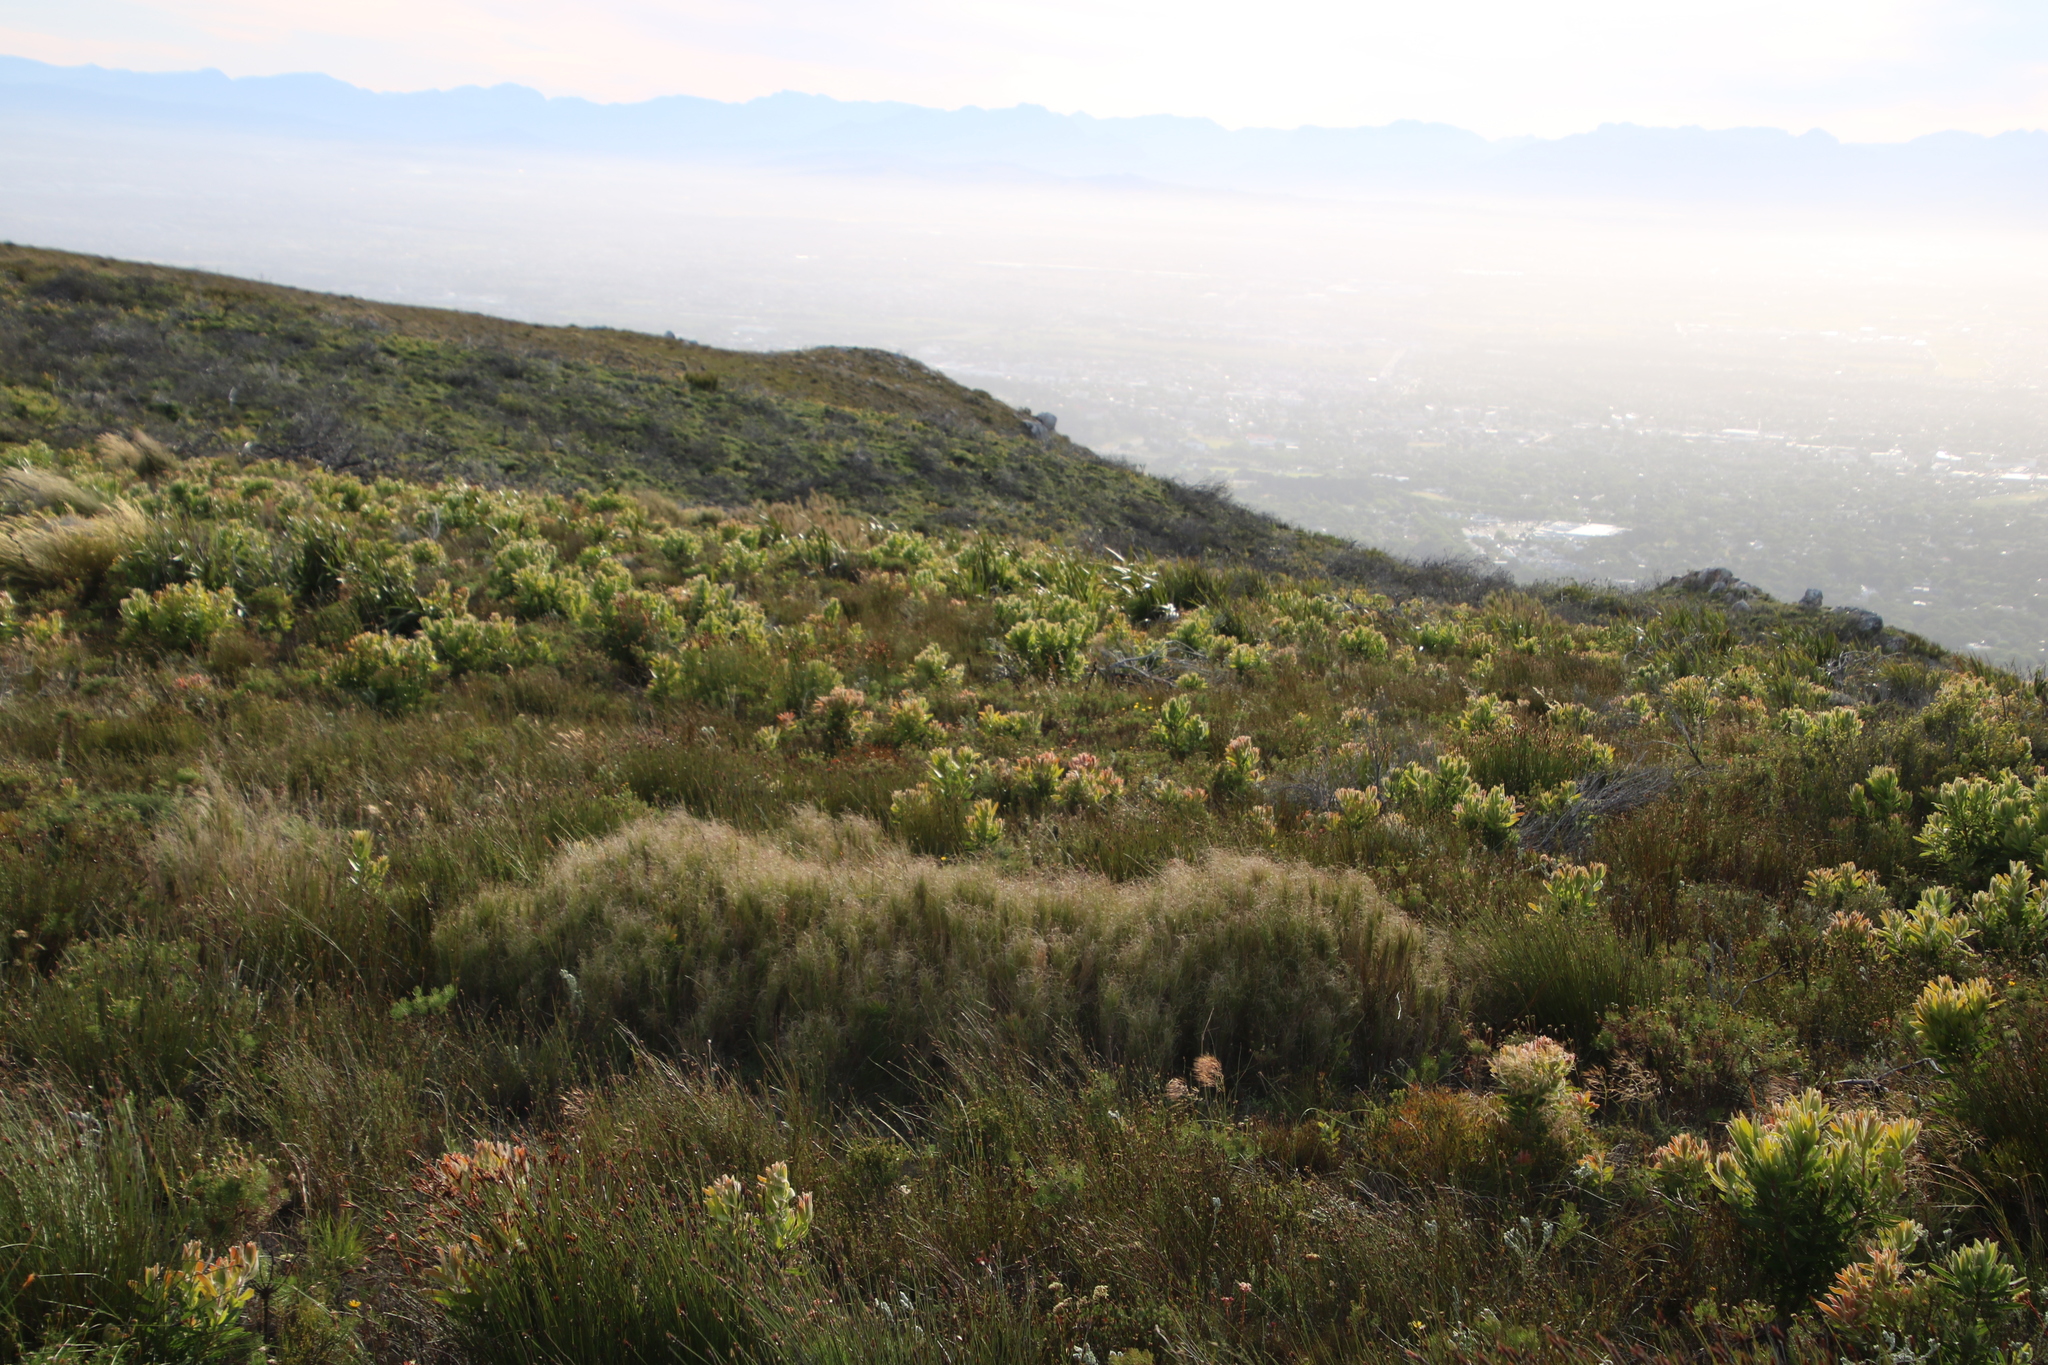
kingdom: Plantae
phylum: Tracheophyta
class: Liliopsida
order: Poales
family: Poaceae
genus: Pseudopentameris
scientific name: Pseudopentameris macrantha
